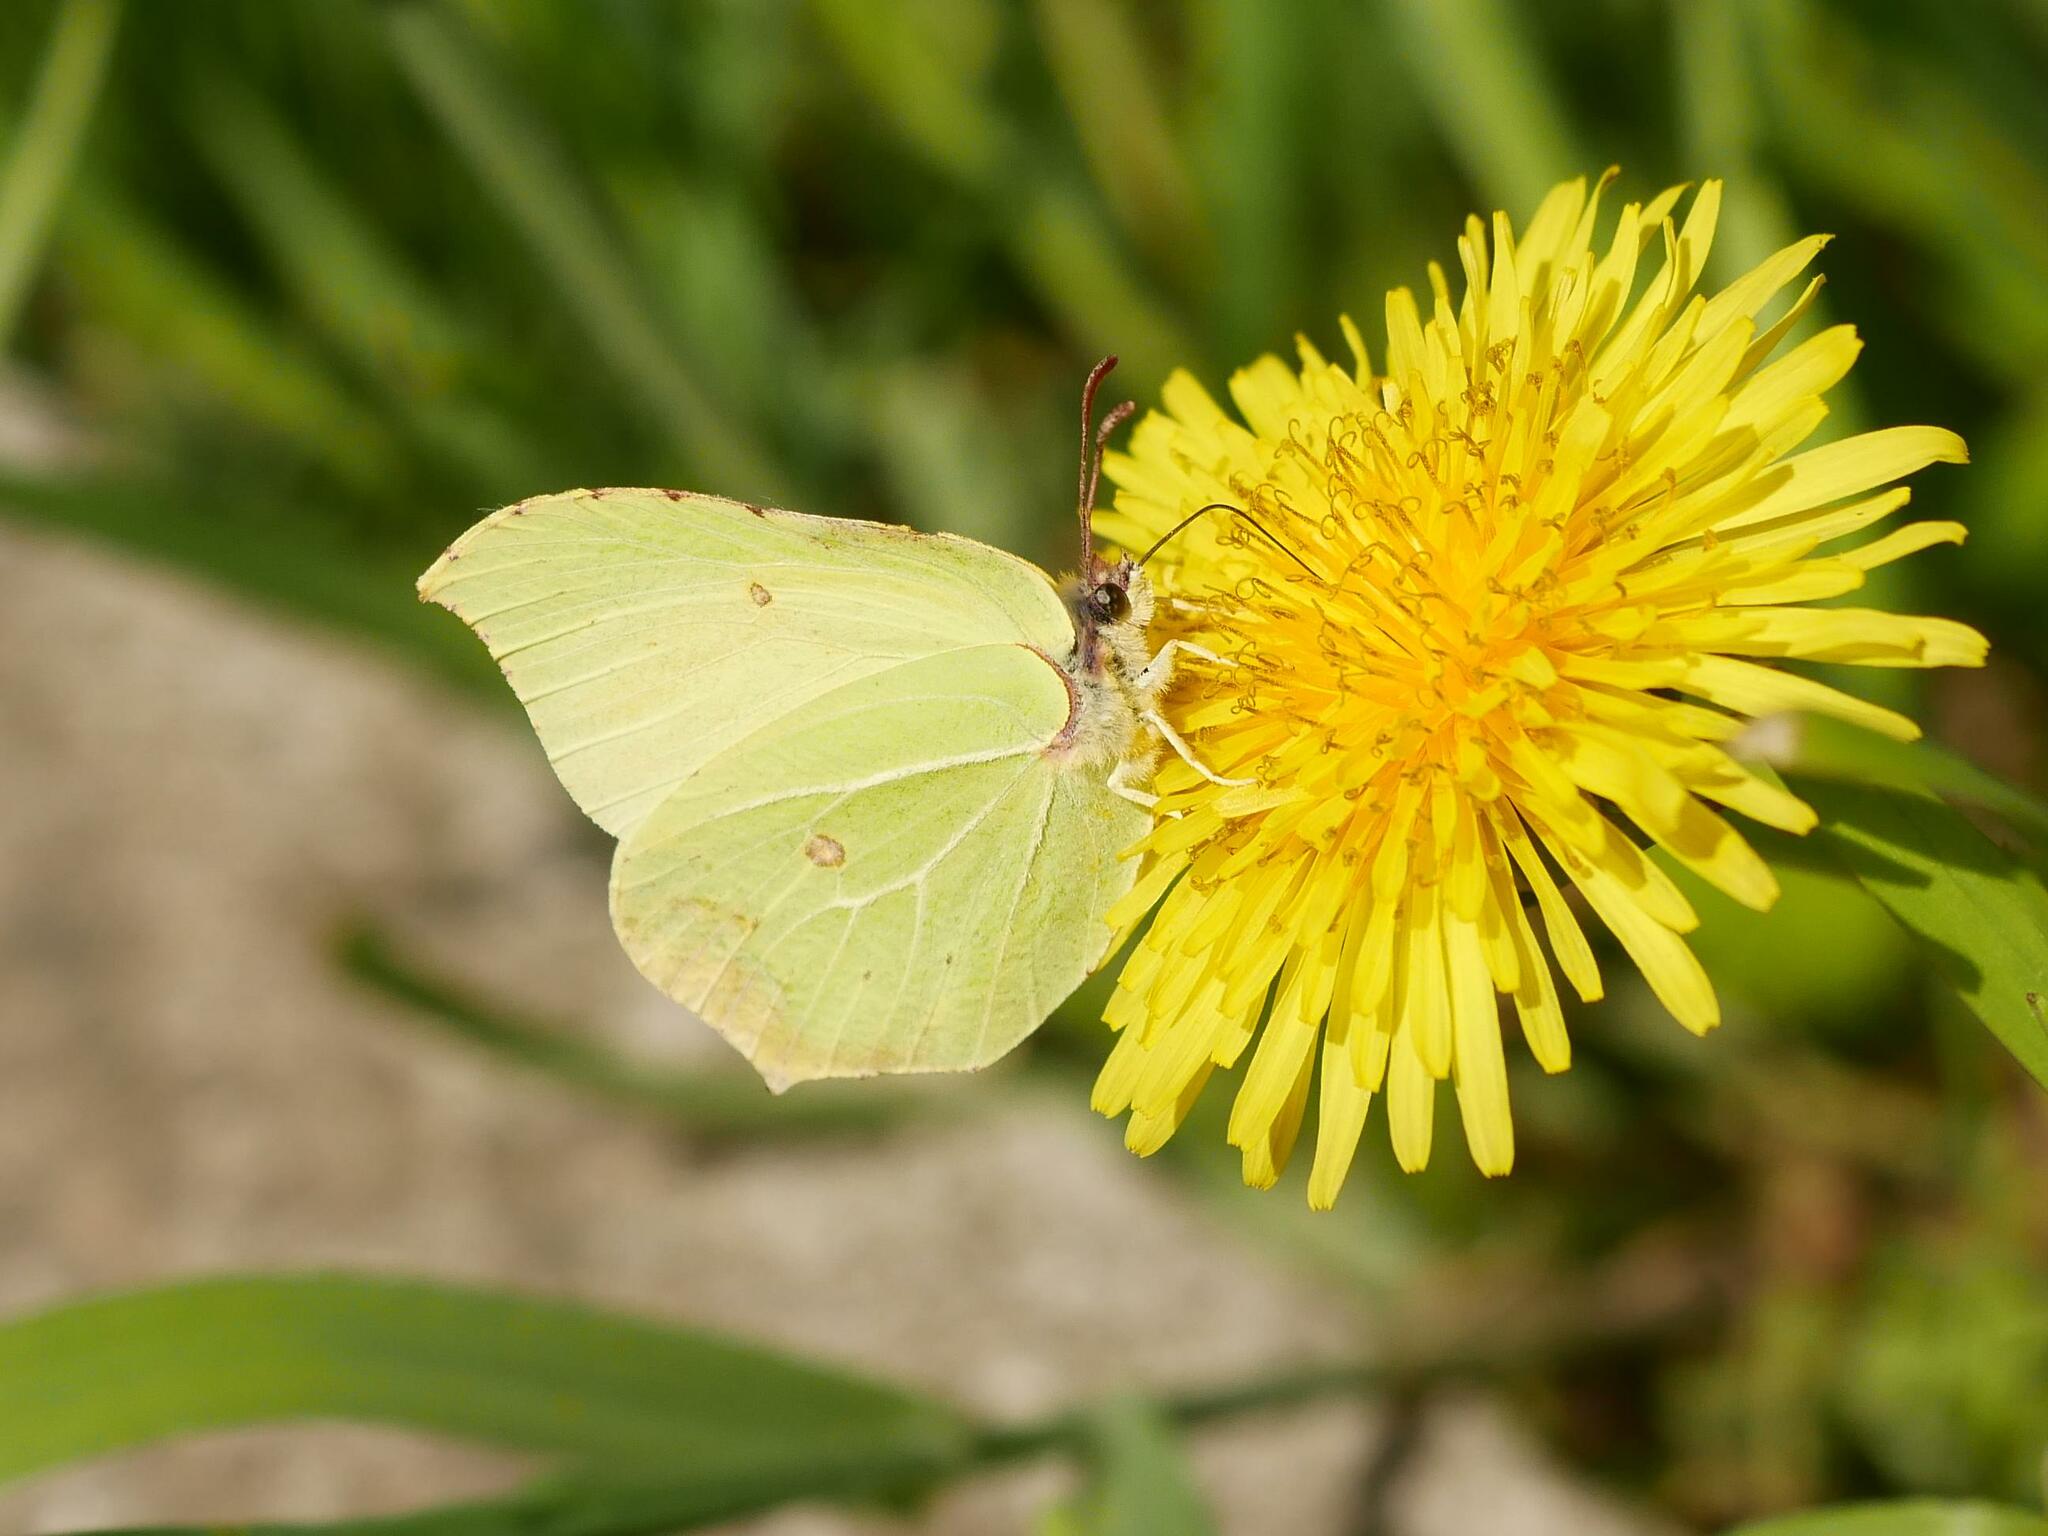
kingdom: Animalia
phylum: Arthropoda
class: Insecta
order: Lepidoptera
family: Pieridae
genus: Gonepteryx
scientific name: Gonepteryx rhamni
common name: Brimstone
